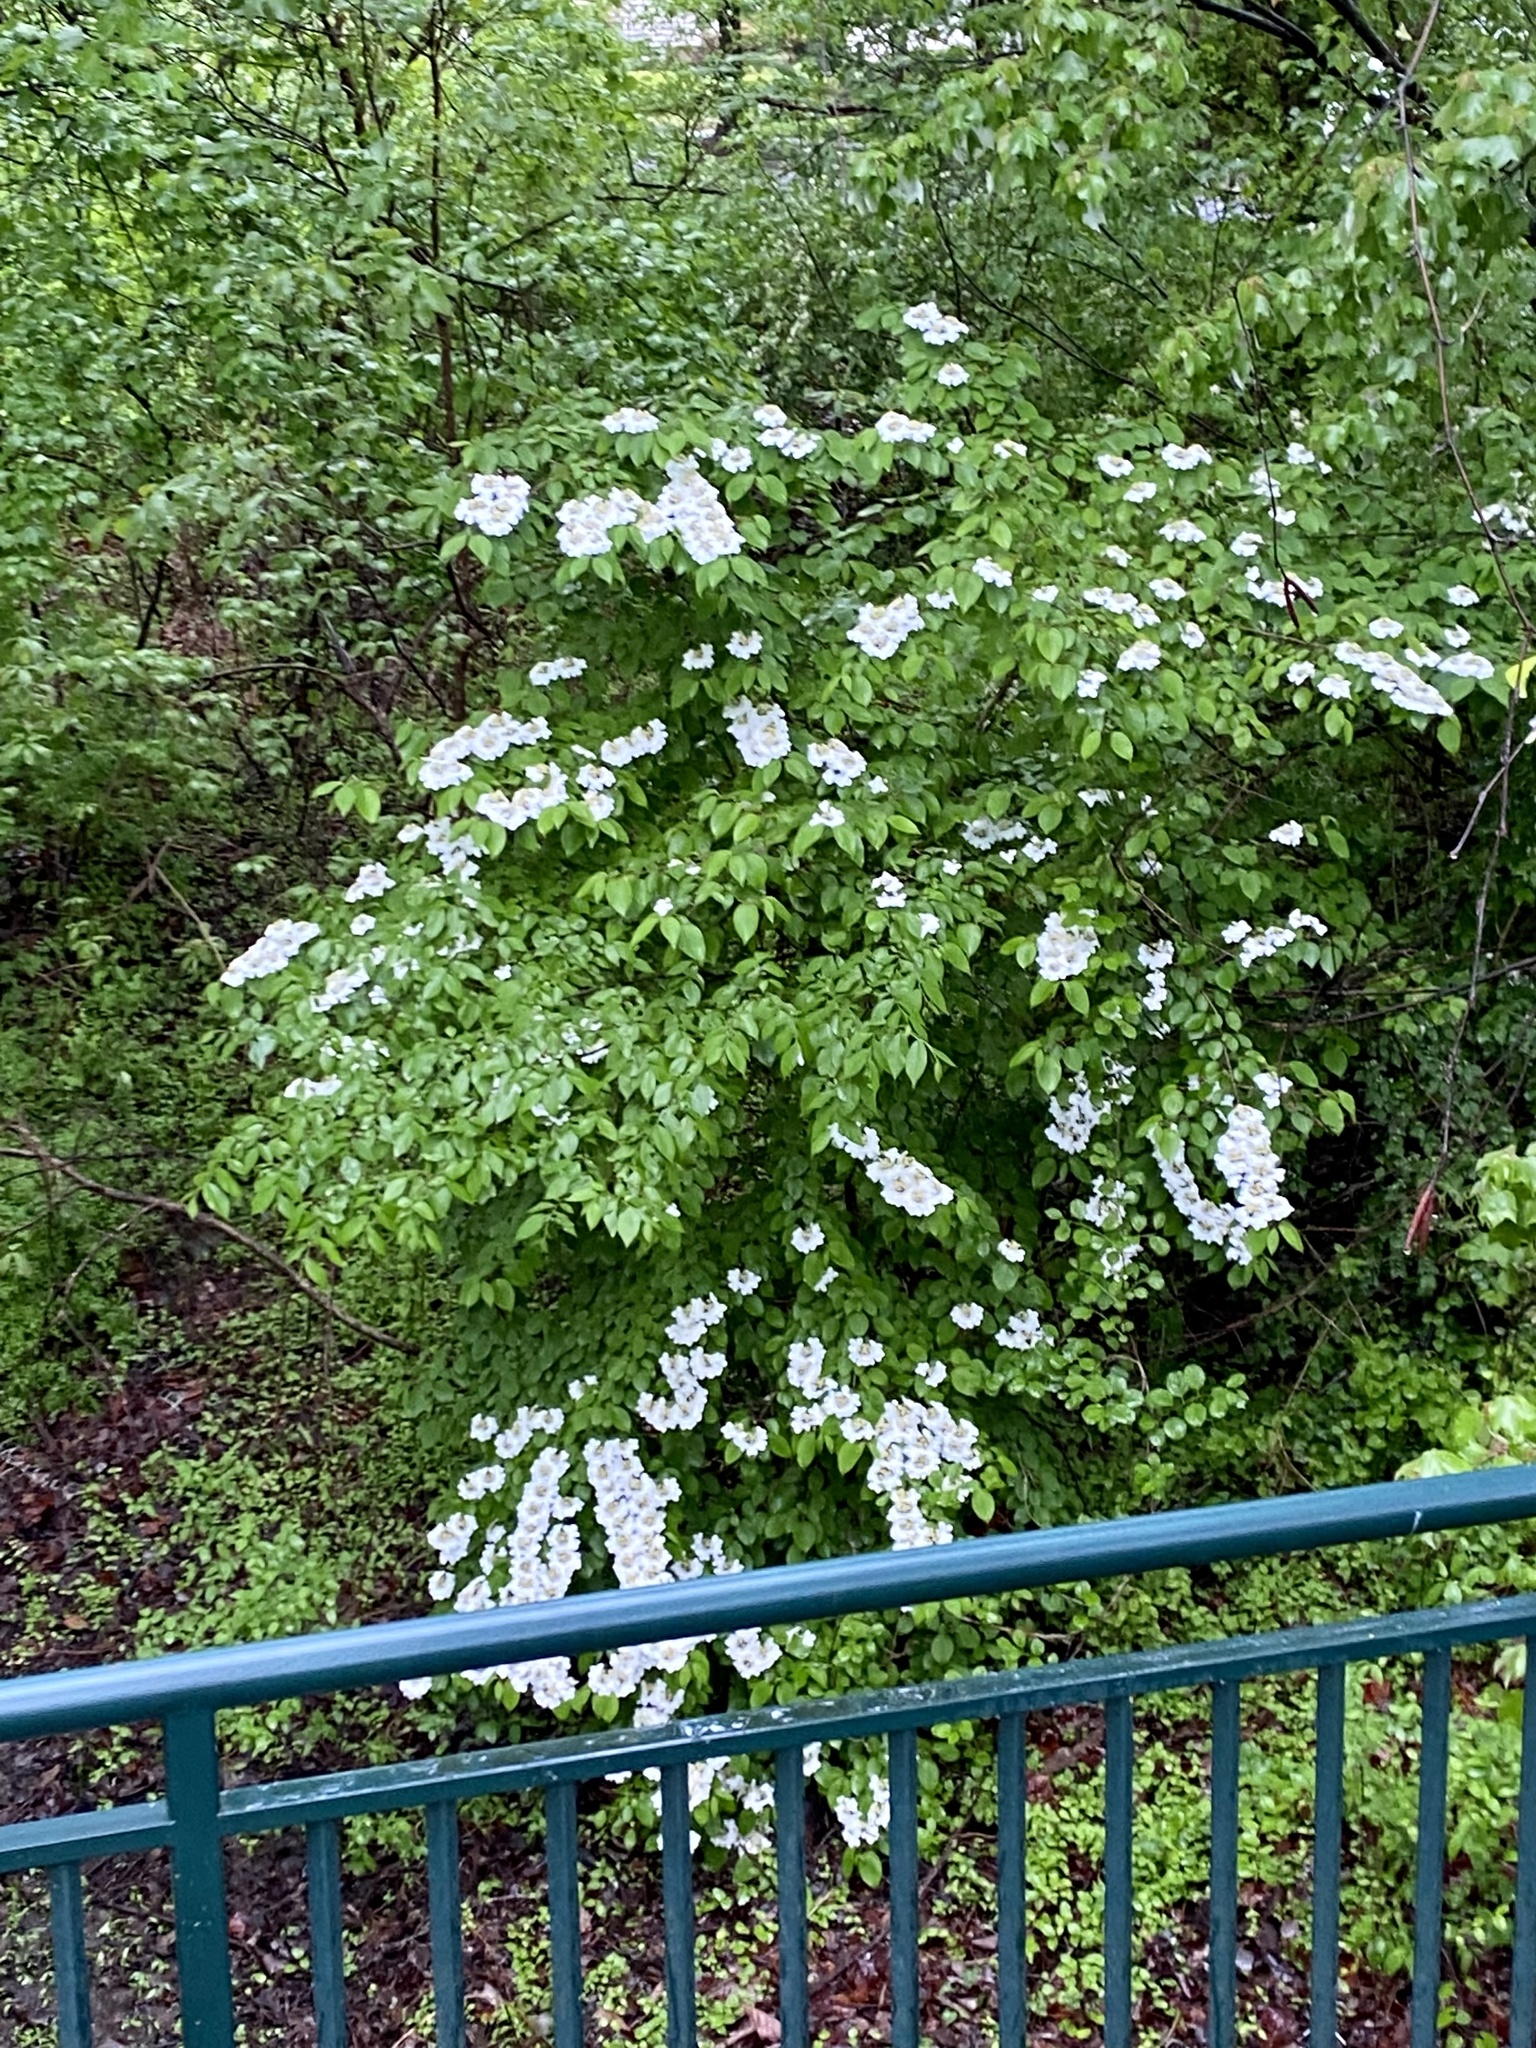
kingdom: Plantae
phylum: Tracheophyta
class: Magnoliopsida
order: Dipsacales
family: Viburnaceae
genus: Viburnum
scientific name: Viburnum plicatum
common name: Japanese snowball
